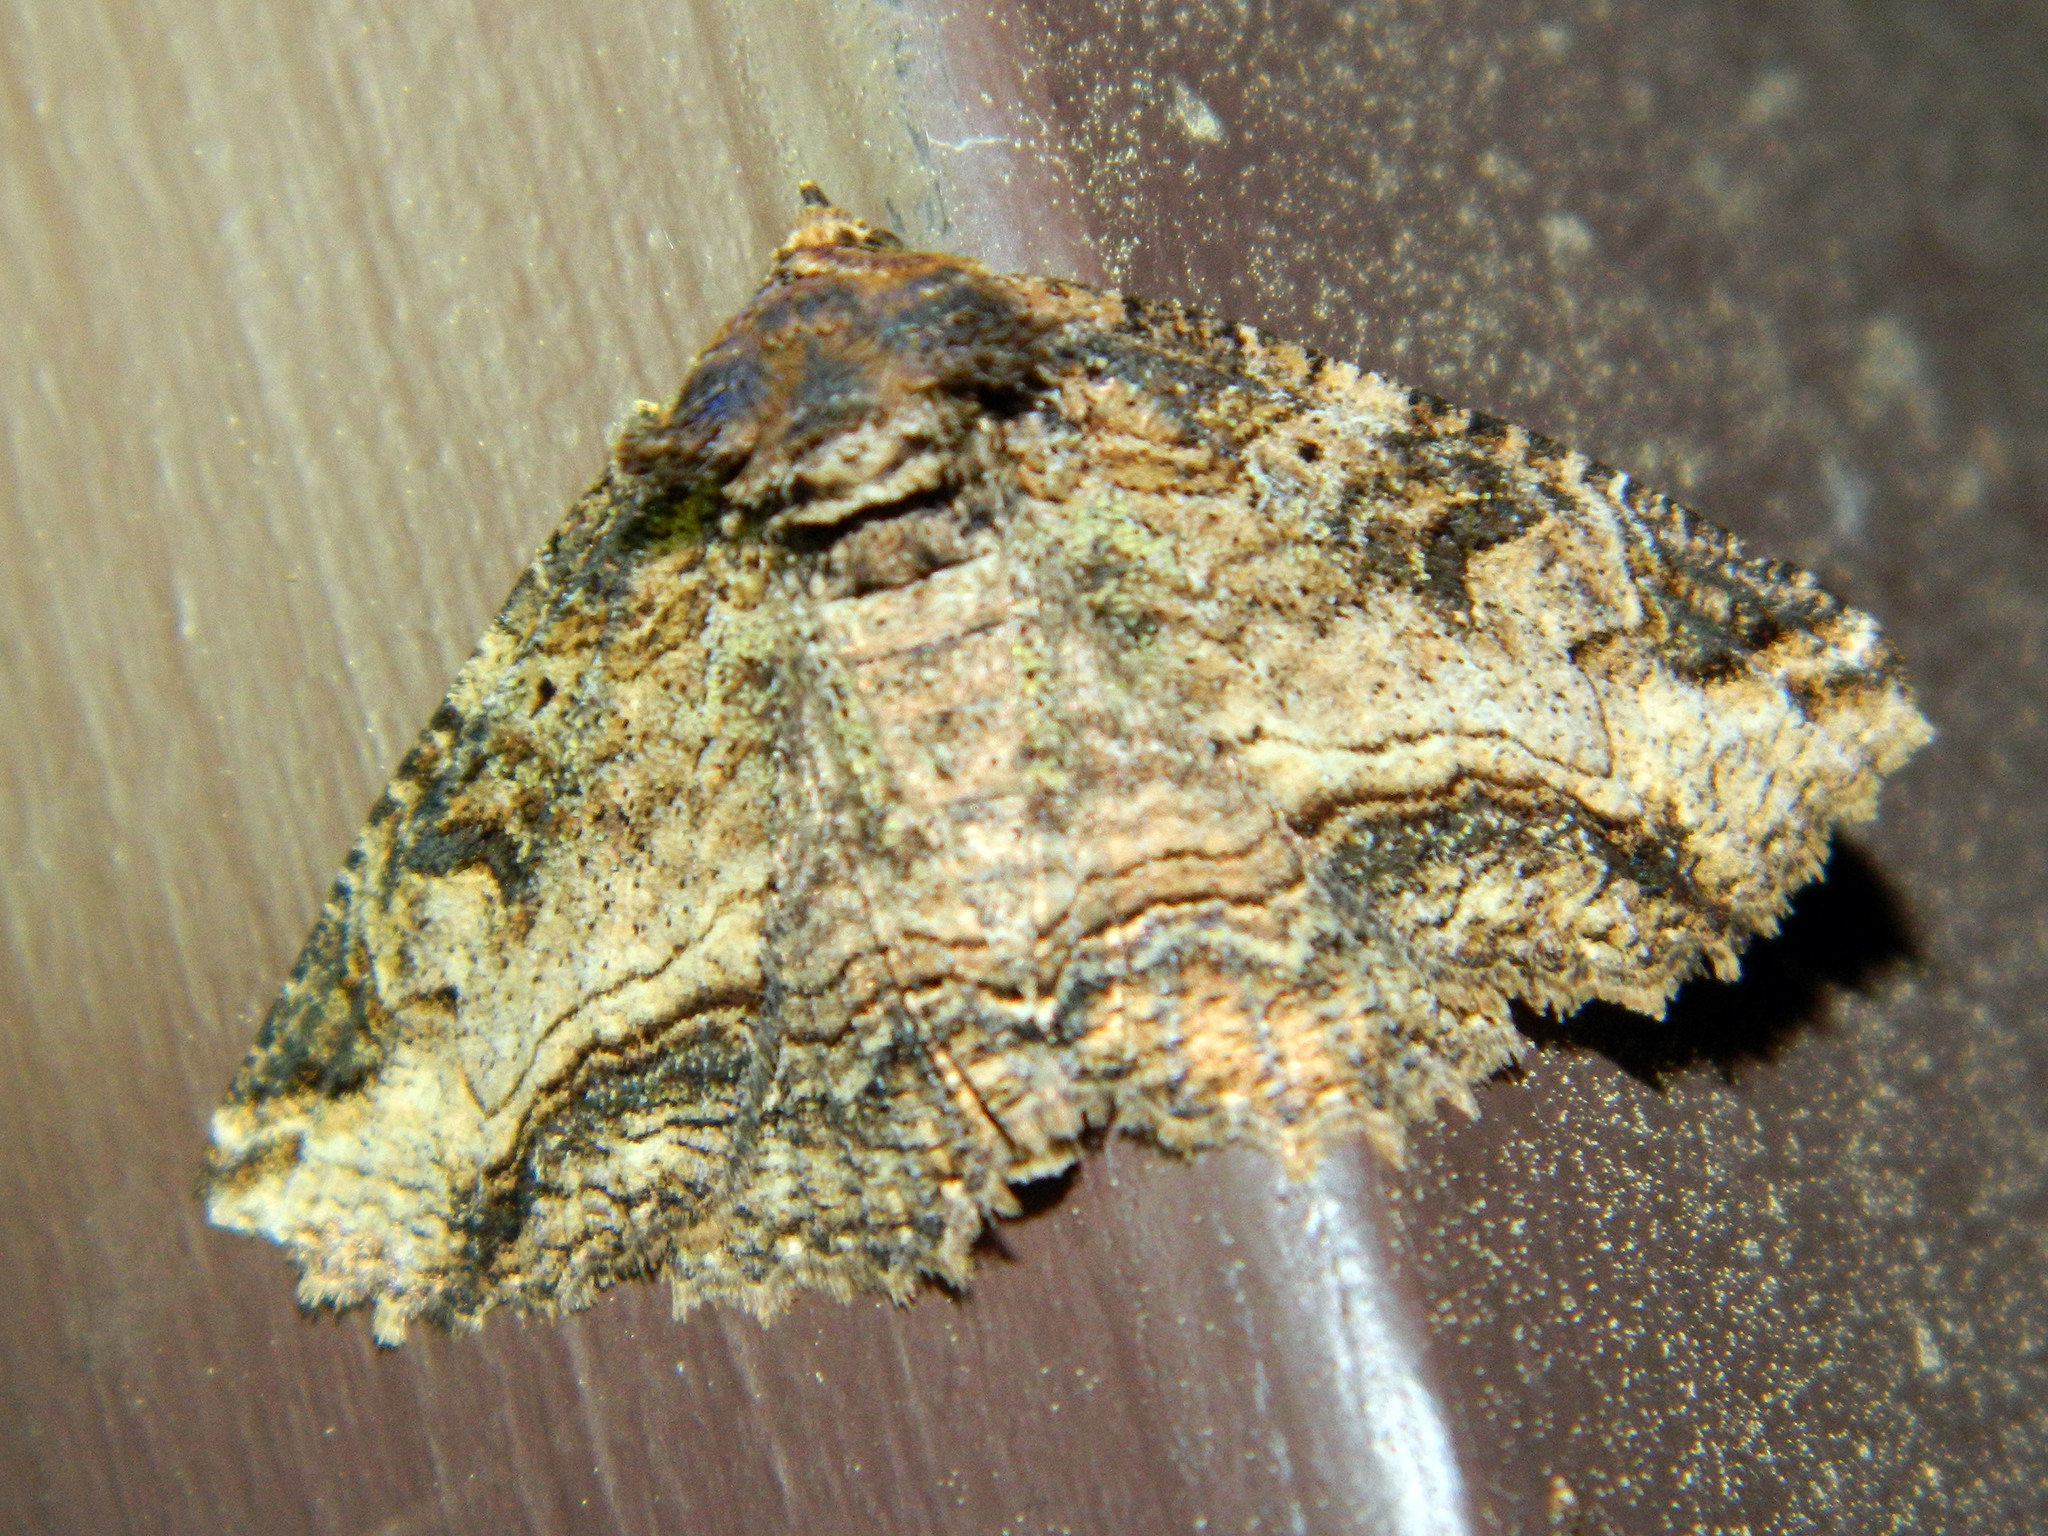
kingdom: Animalia
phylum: Arthropoda
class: Insecta
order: Lepidoptera
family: Erebidae
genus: Zale
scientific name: Zale minerea
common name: Colorful zale moth
